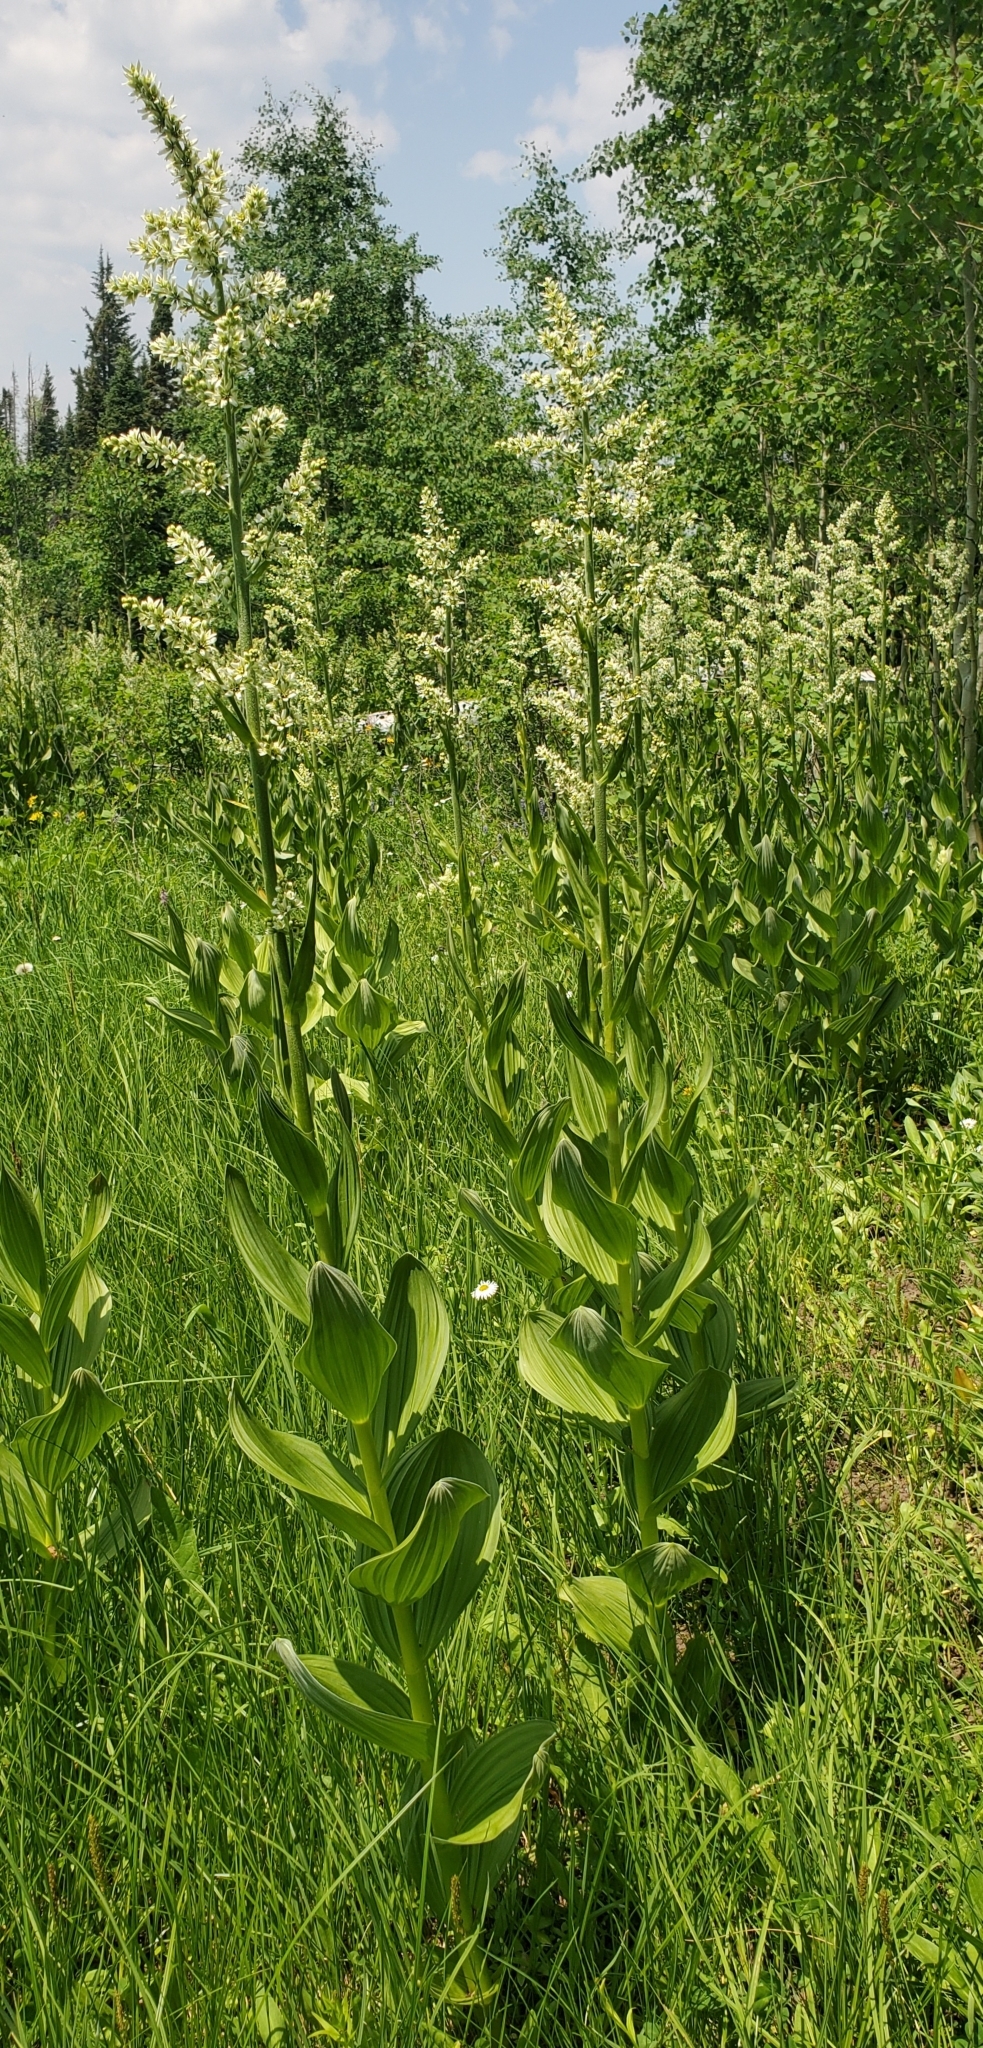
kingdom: Plantae
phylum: Tracheophyta
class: Liliopsida
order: Liliales
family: Melanthiaceae
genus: Veratrum
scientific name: Veratrum californicum
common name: California veratrum
